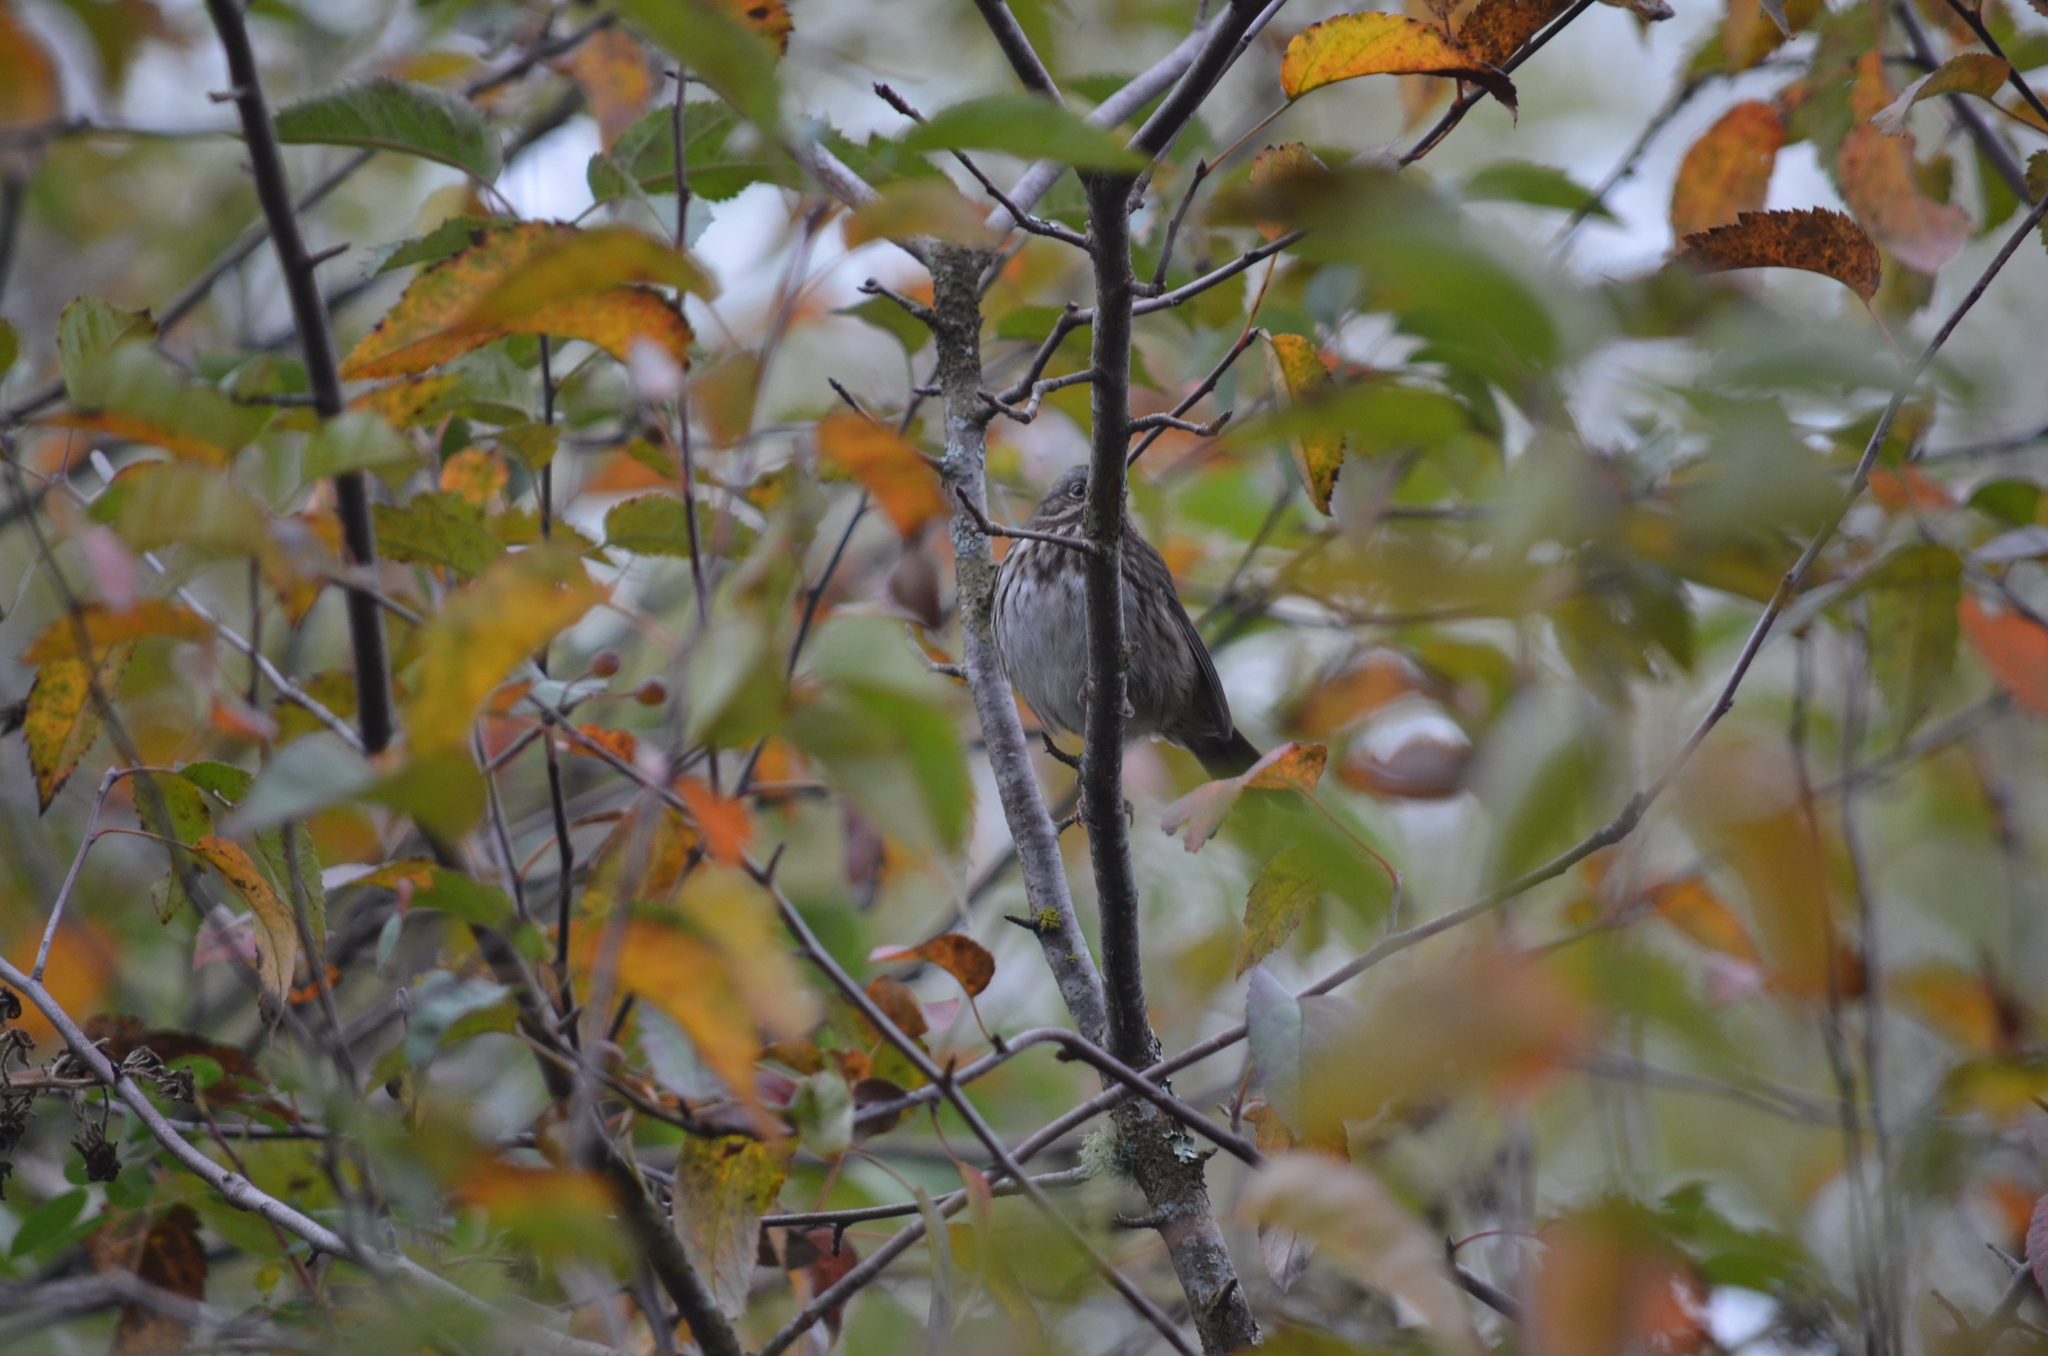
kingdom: Animalia
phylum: Chordata
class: Aves
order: Passeriformes
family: Passerellidae
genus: Melospiza
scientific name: Melospiza melodia
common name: Song sparrow
